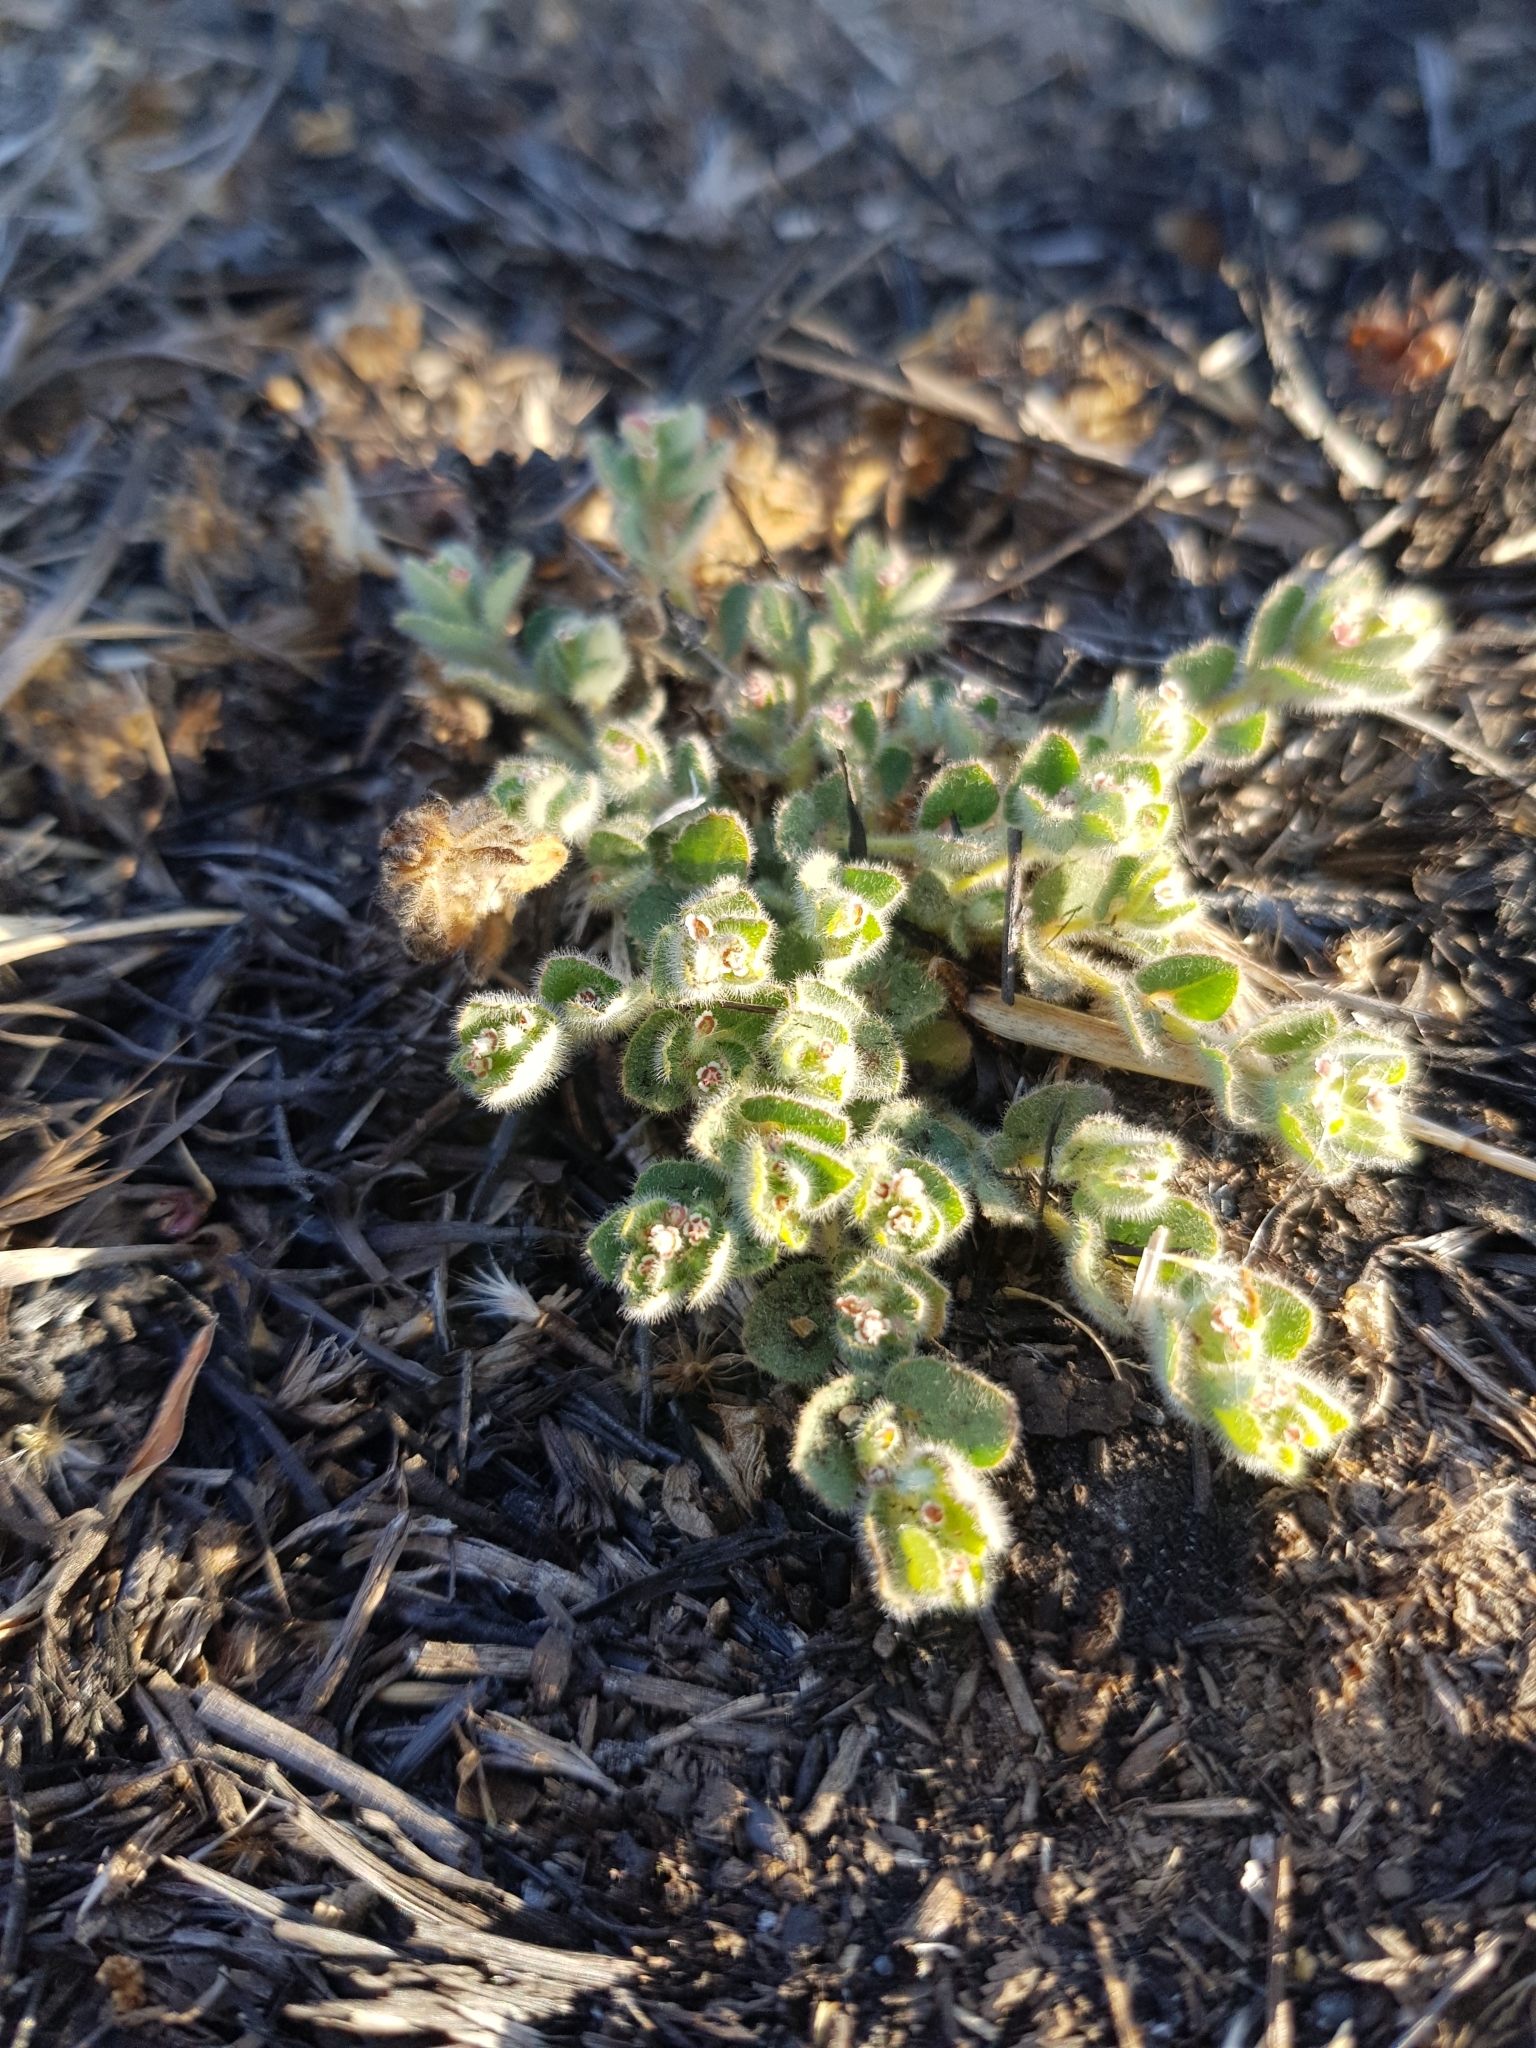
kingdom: Plantae
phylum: Tracheophyta
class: Magnoliopsida
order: Malpighiales
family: Euphorbiaceae
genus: Euphorbia
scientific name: Euphorbia velleriflora
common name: Caliche sandmat
